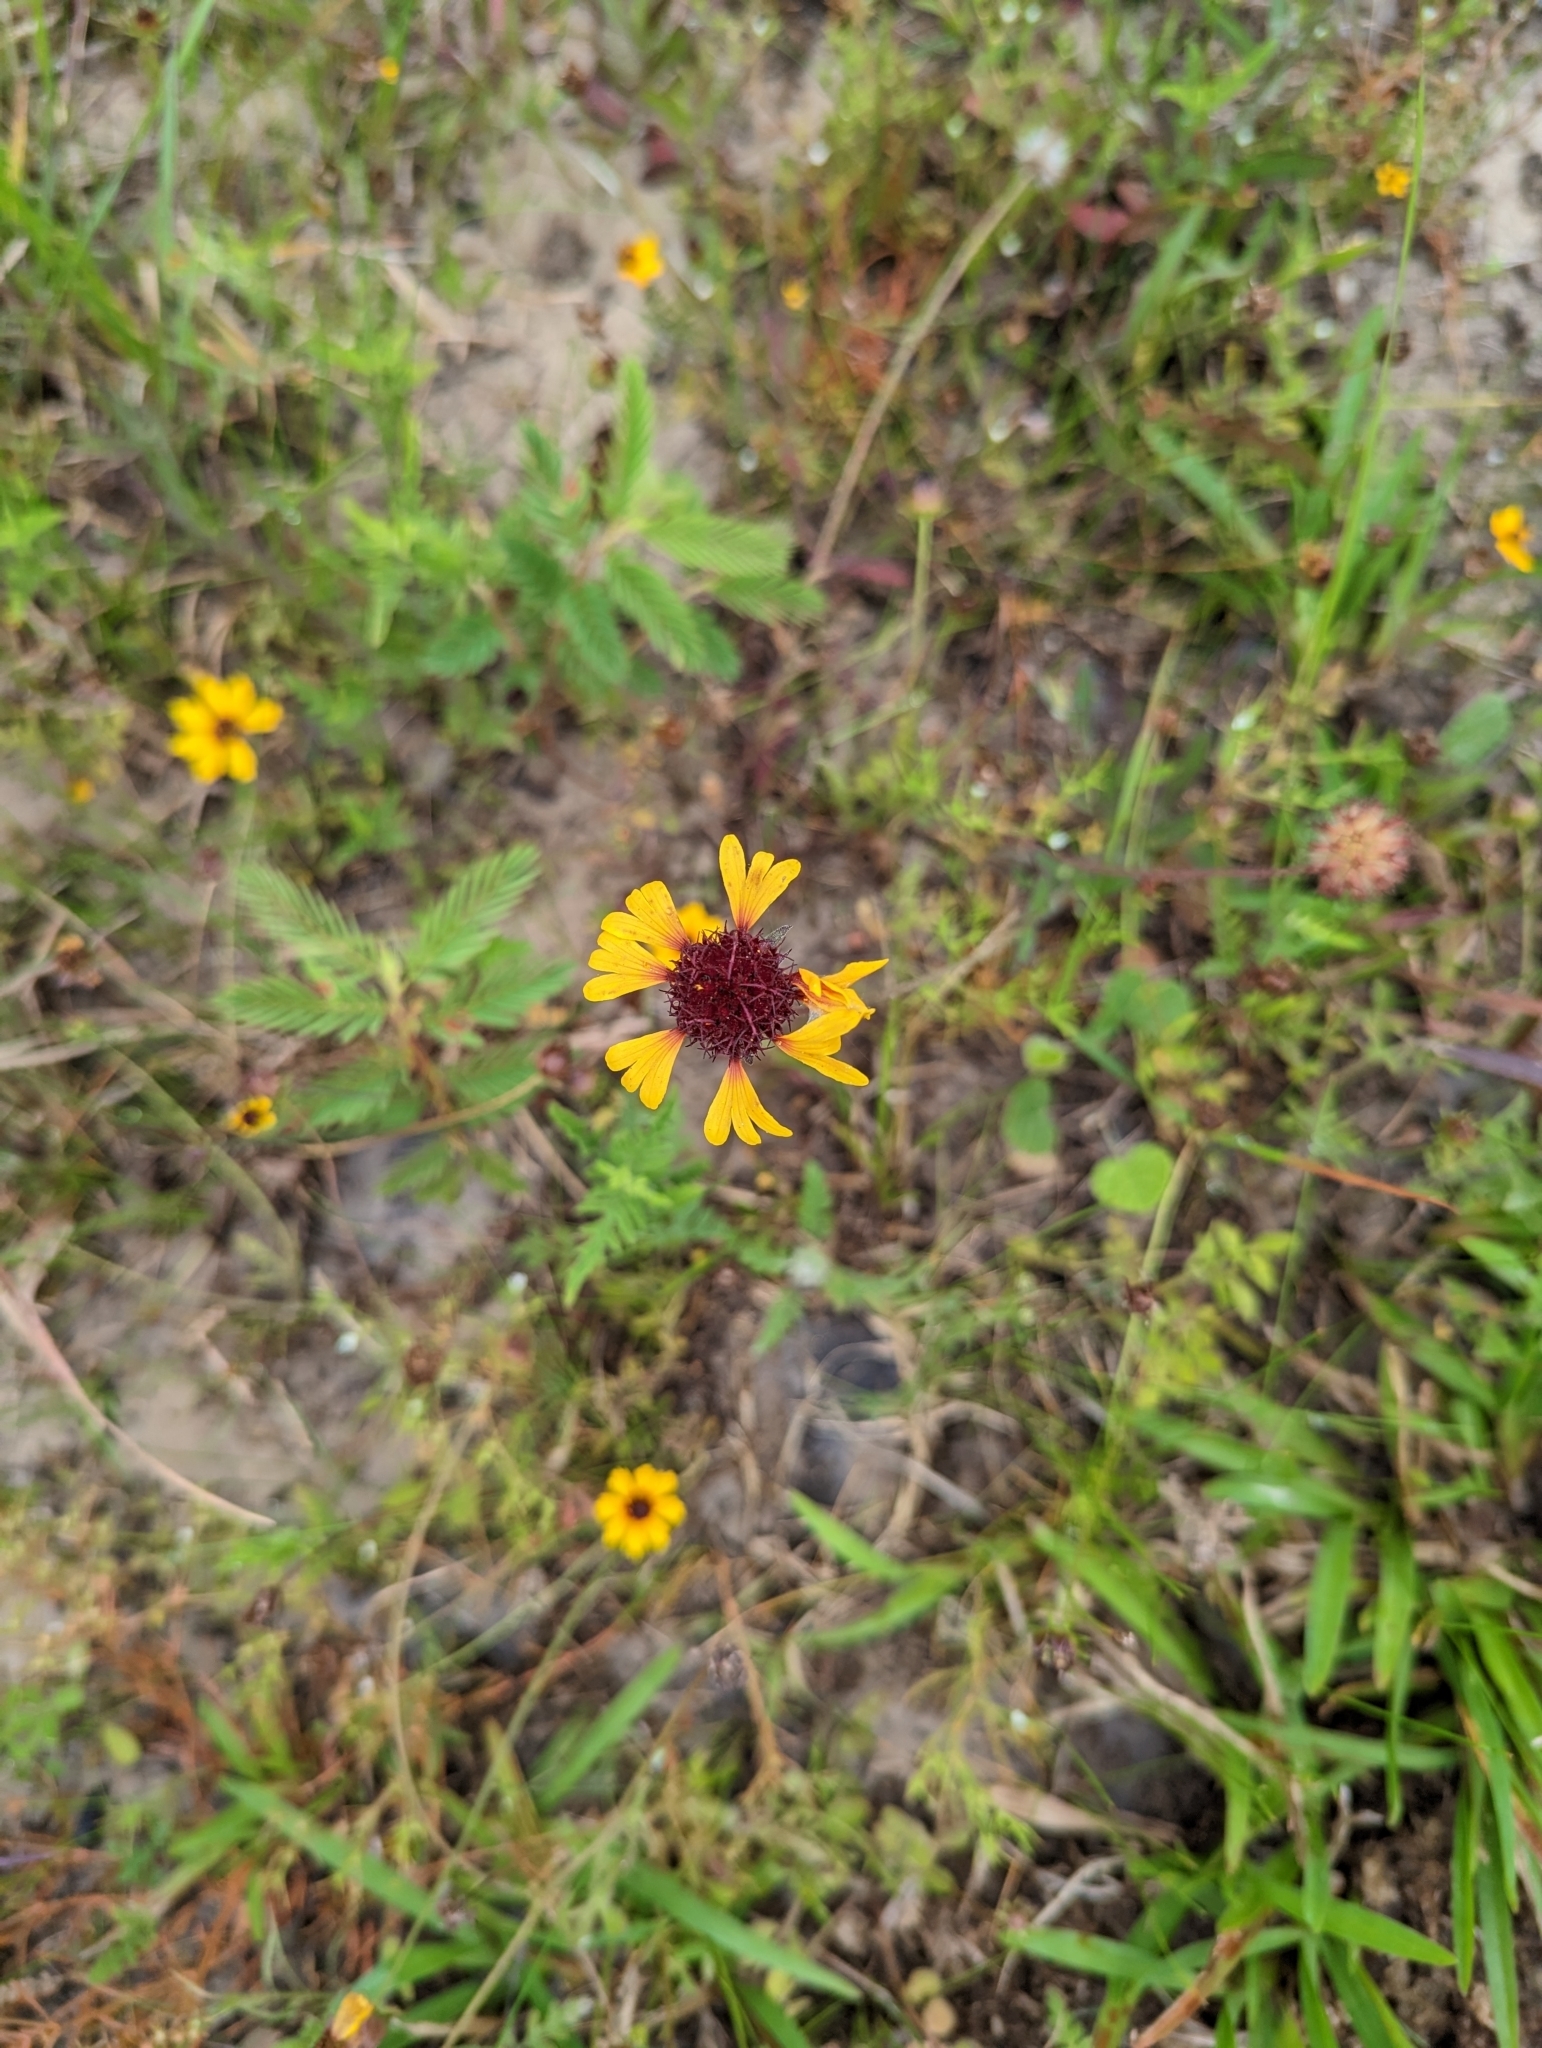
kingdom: Plantae
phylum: Tracheophyta
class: Magnoliopsida
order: Asterales
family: Asteraceae
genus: Gaillardia
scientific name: Gaillardia aestivalis
